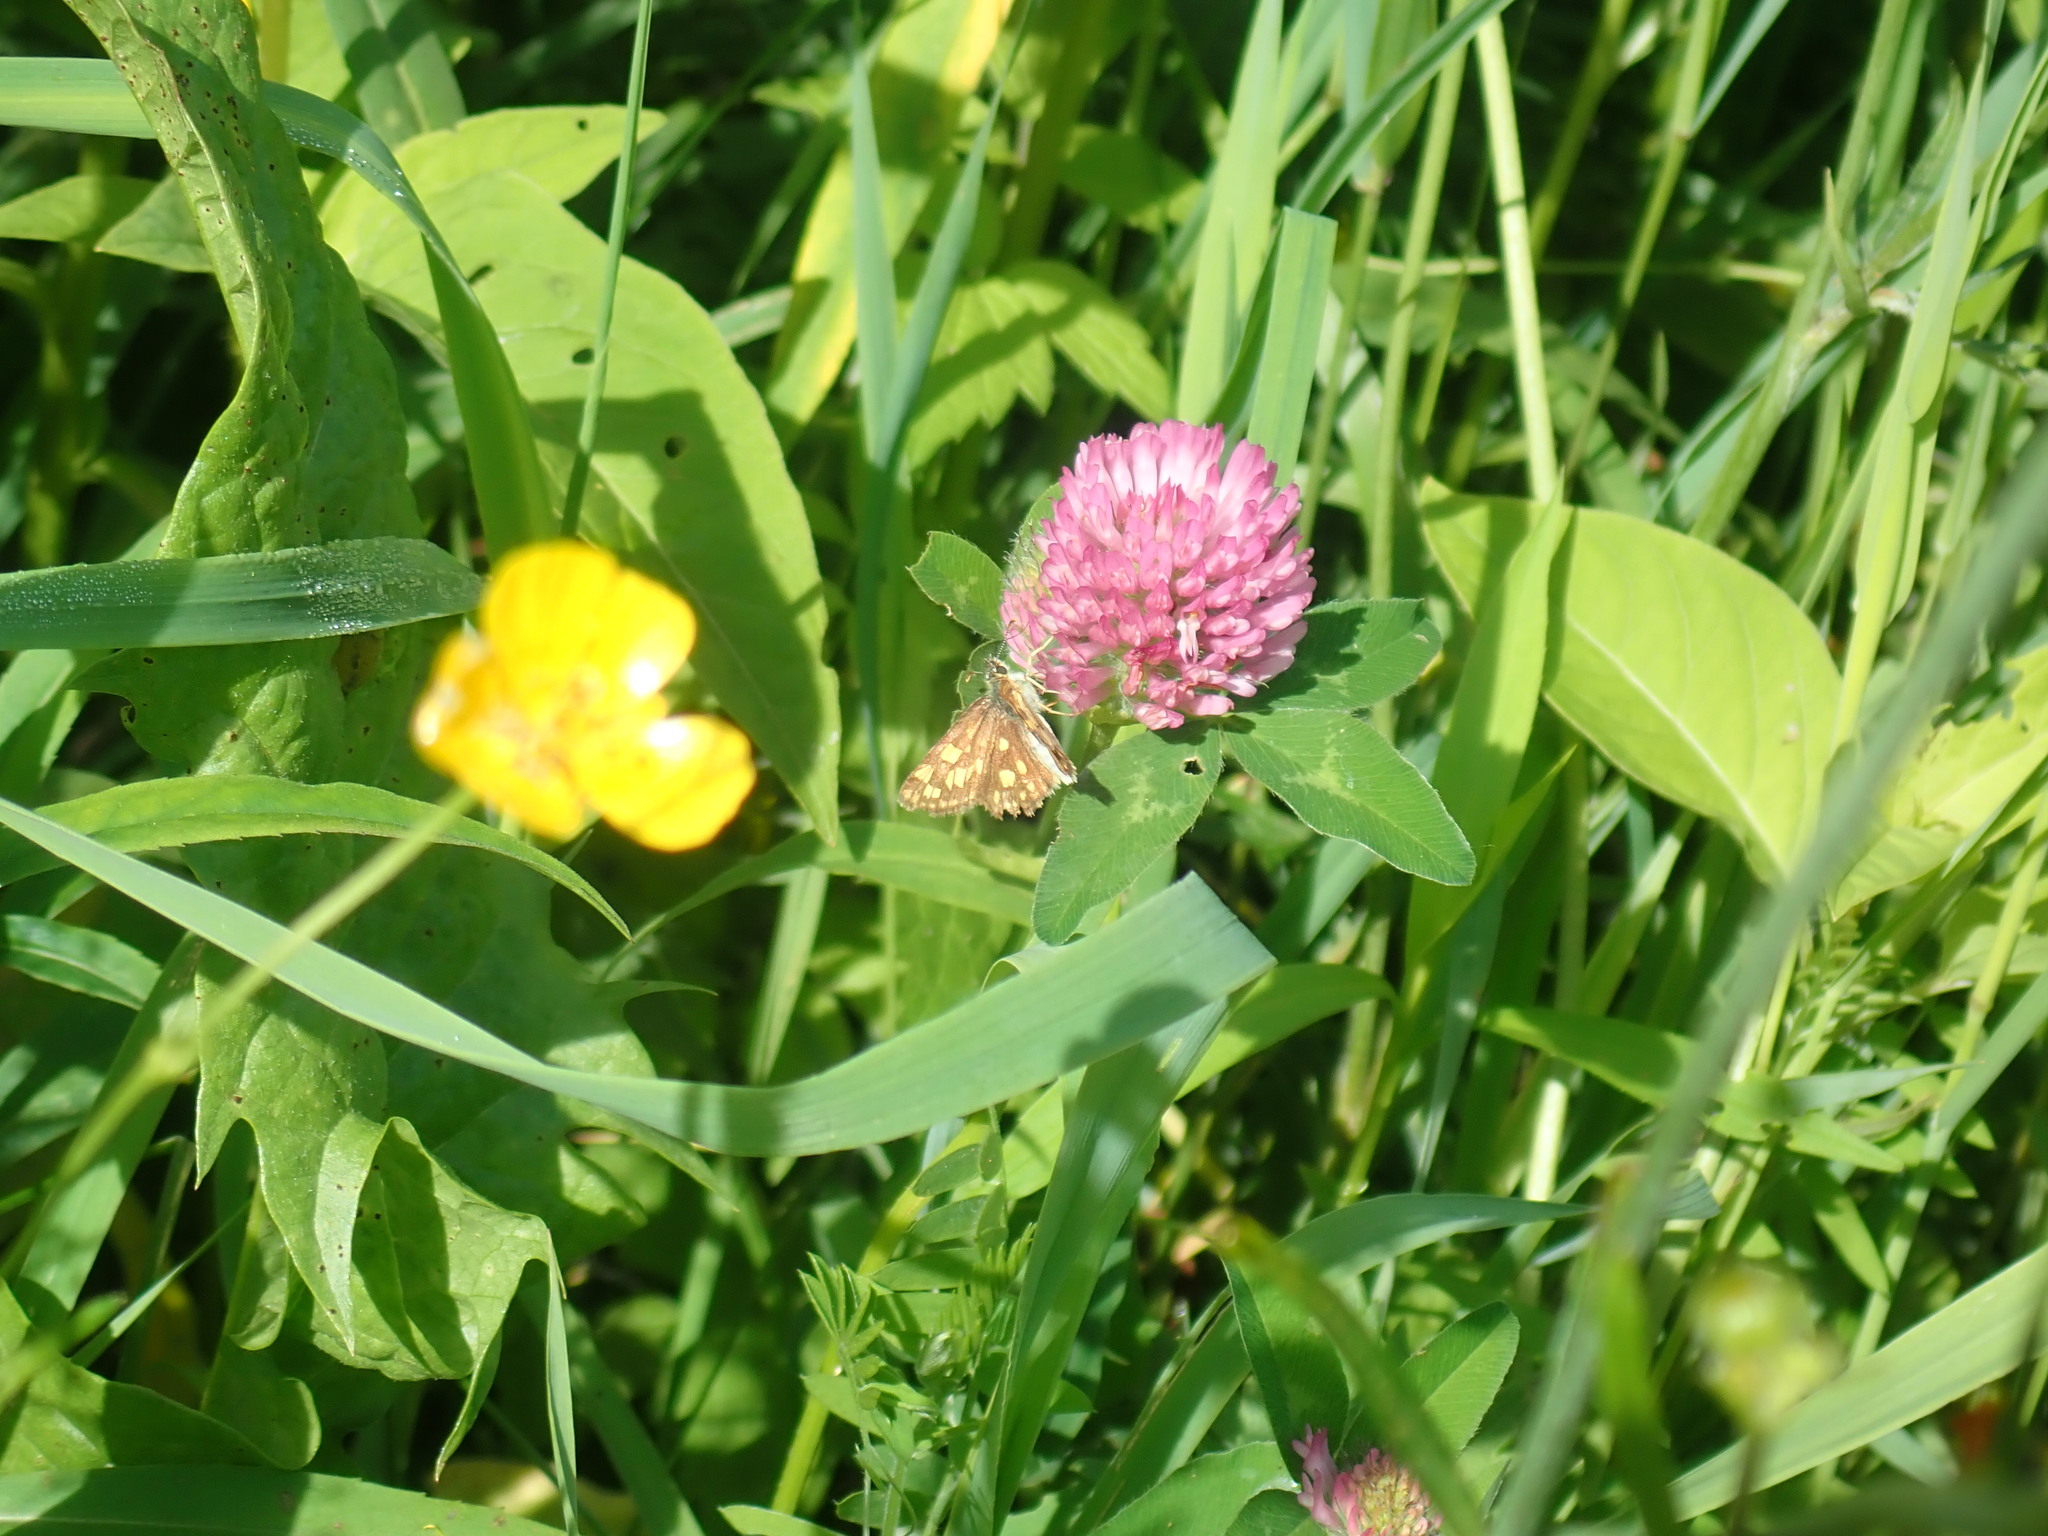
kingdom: Animalia
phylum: Arthropoda
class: Insecta
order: Lepidoptera
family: Hesperiidae
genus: Carterocephalus
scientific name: Carterocephalus mandan
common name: Arctic skipperling
